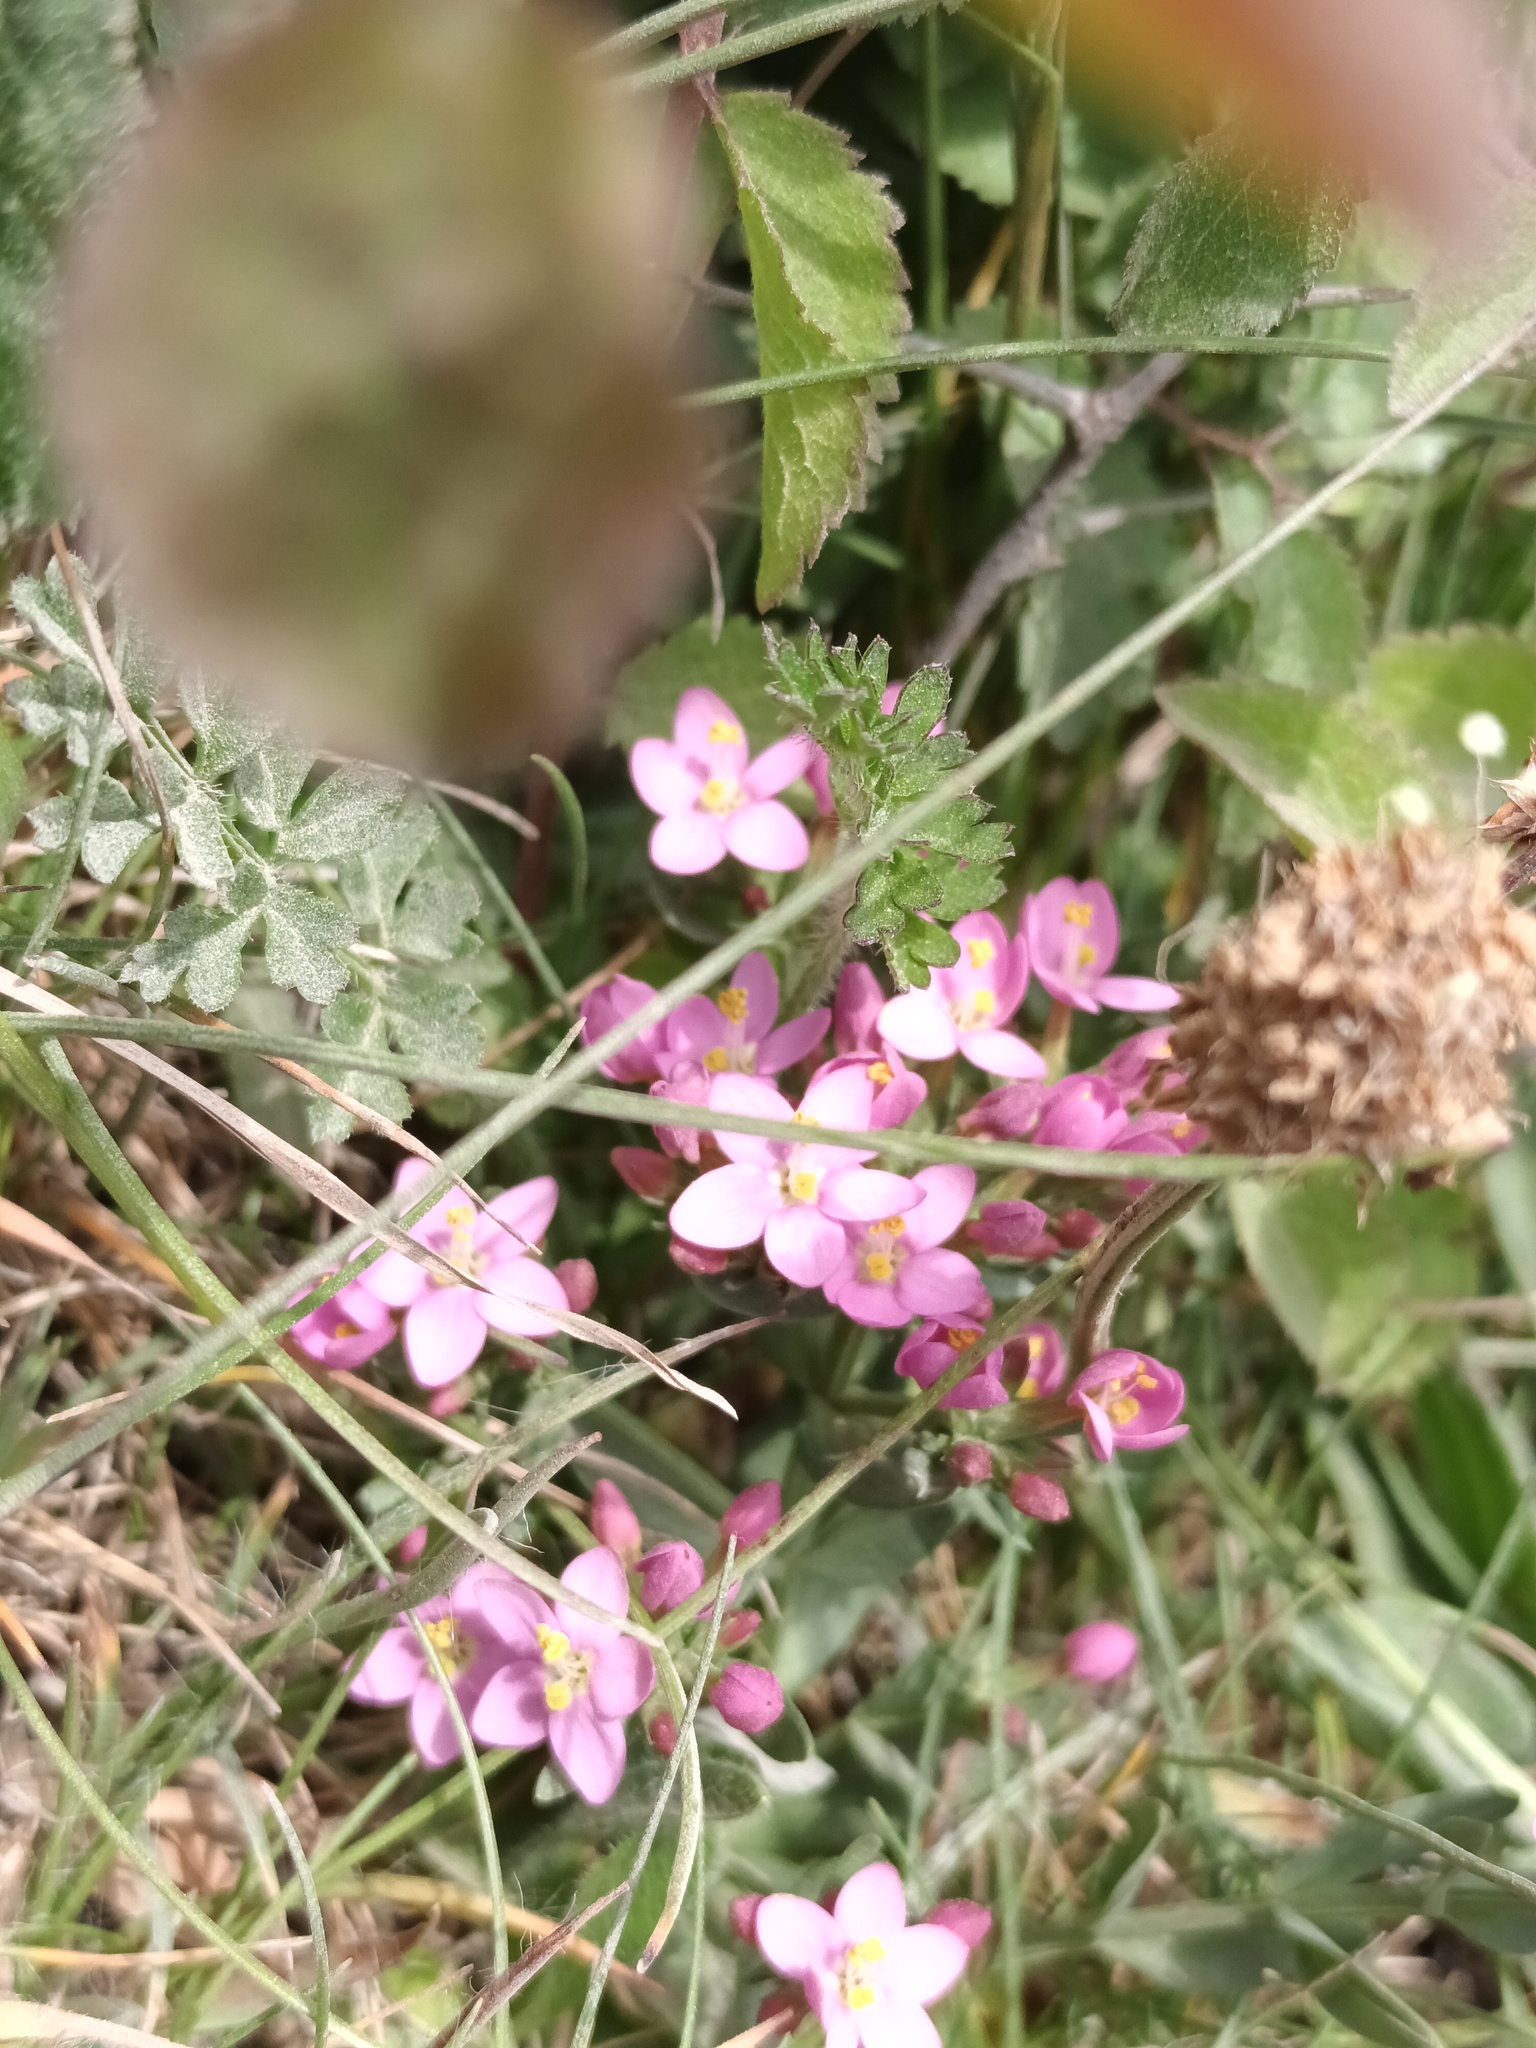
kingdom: Plantae
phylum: Tracheophyta
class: Magnoliopsida
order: Gentianales
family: Gentianaceae
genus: Centaurium
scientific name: Centaurium erythraea
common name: Common centaury
